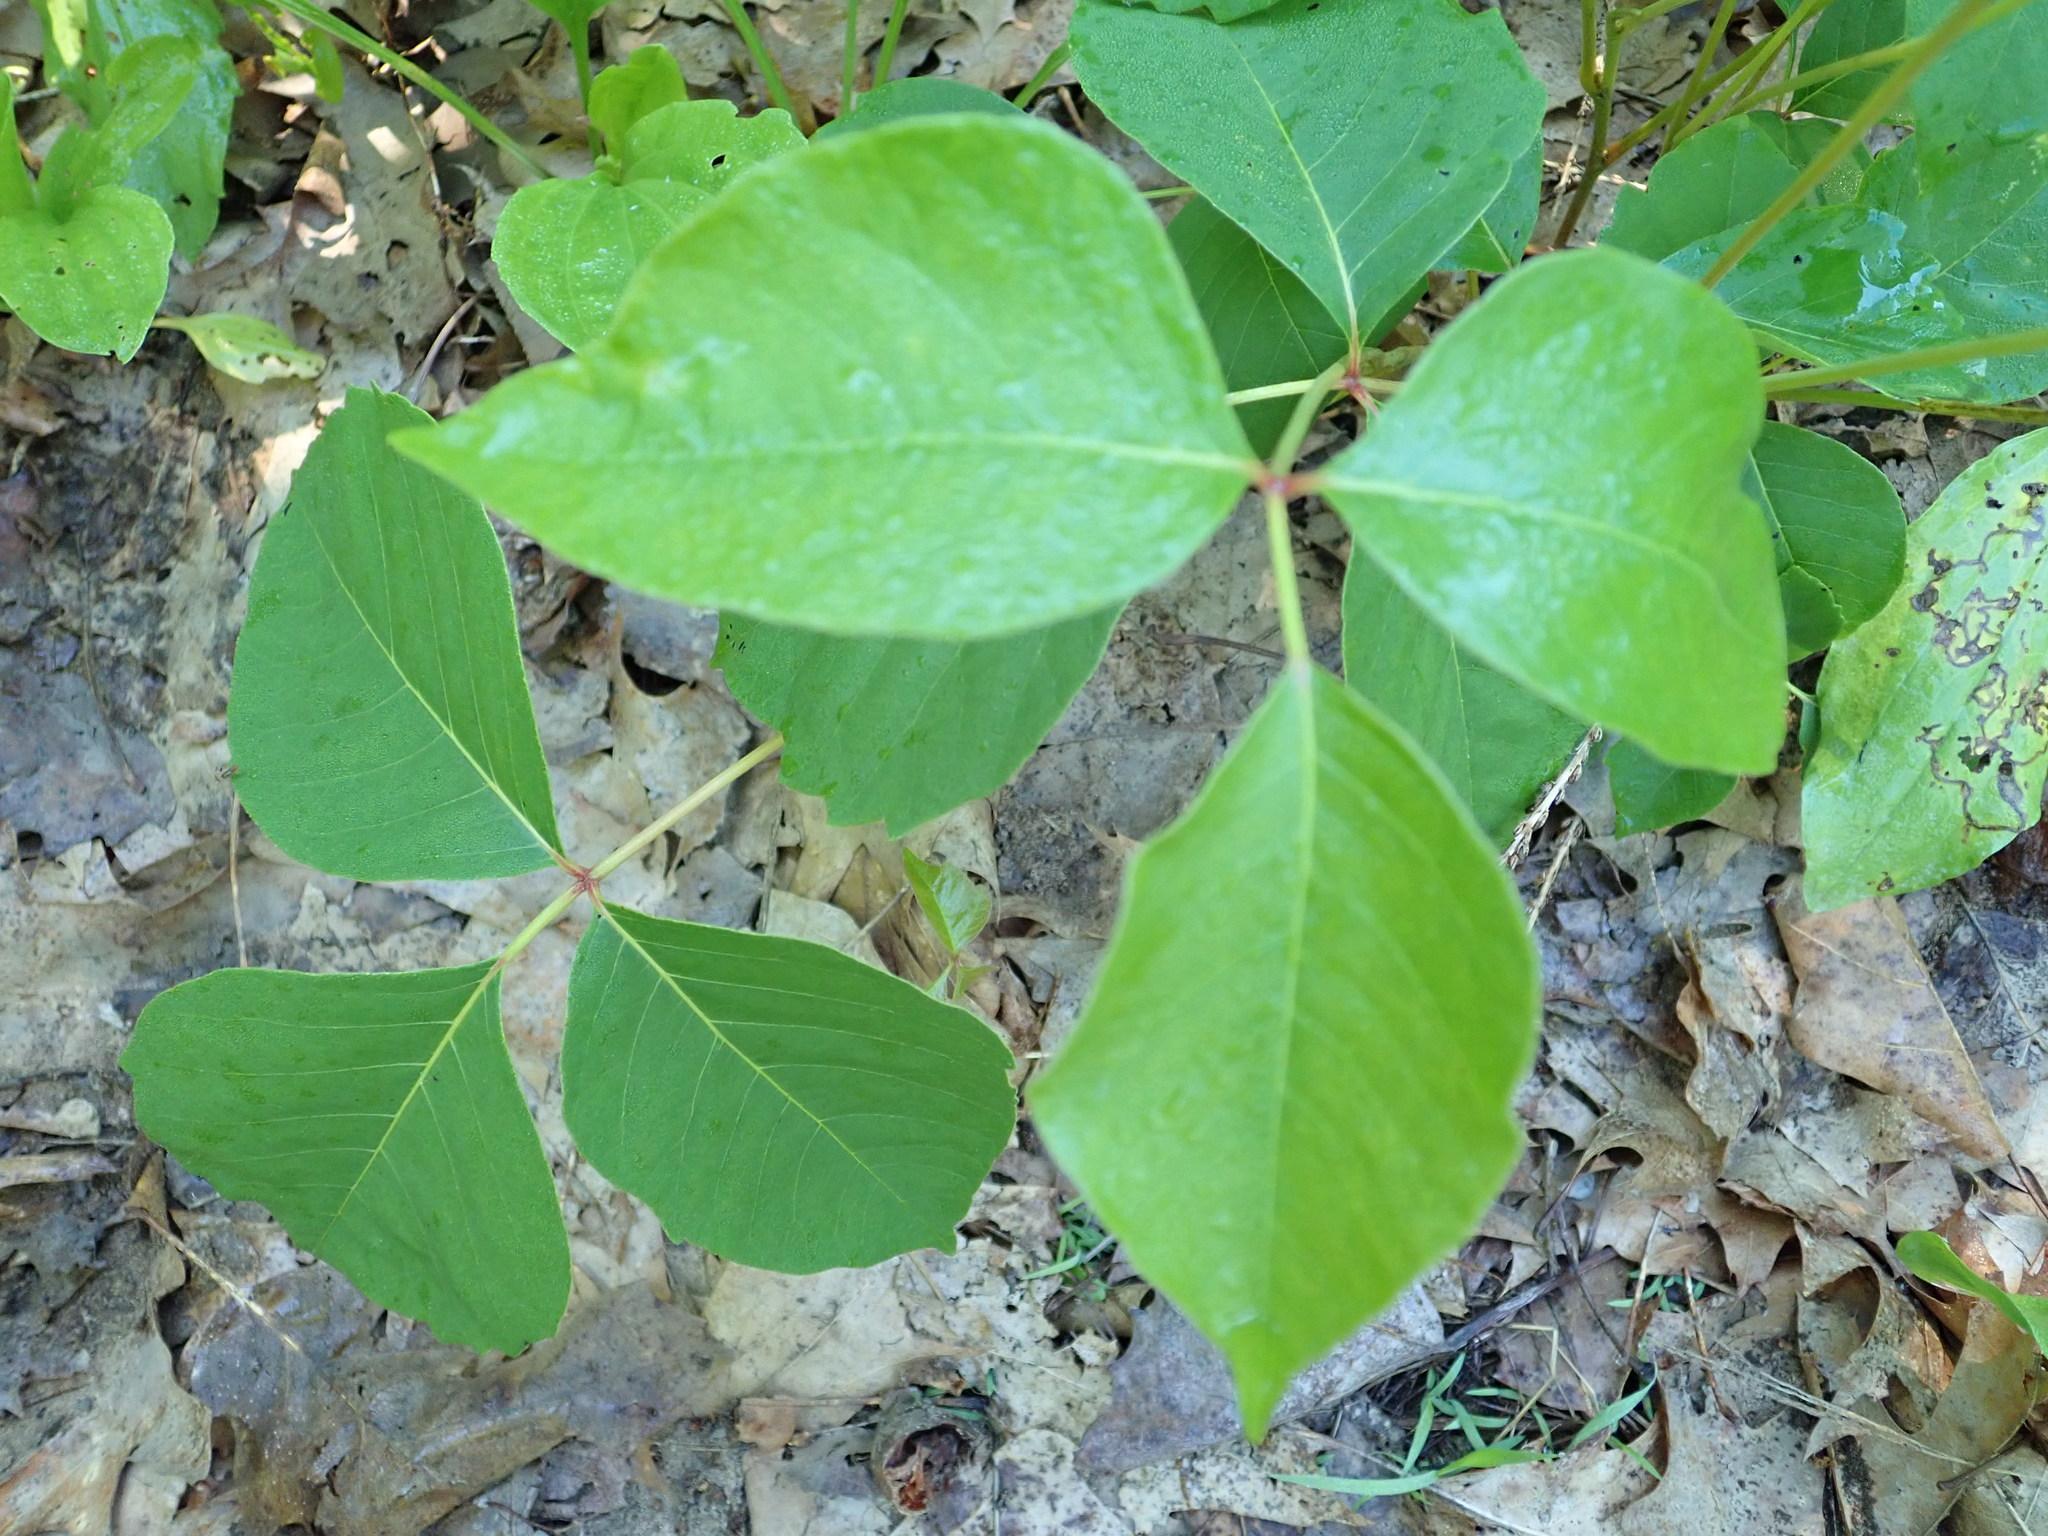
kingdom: Plantae
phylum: Tracheophyta
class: Magnoliopsida
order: Sapindales
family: Anacardiaceae
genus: Toxicodendron
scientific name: Toxicodendron radicans
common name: Poison ivy
